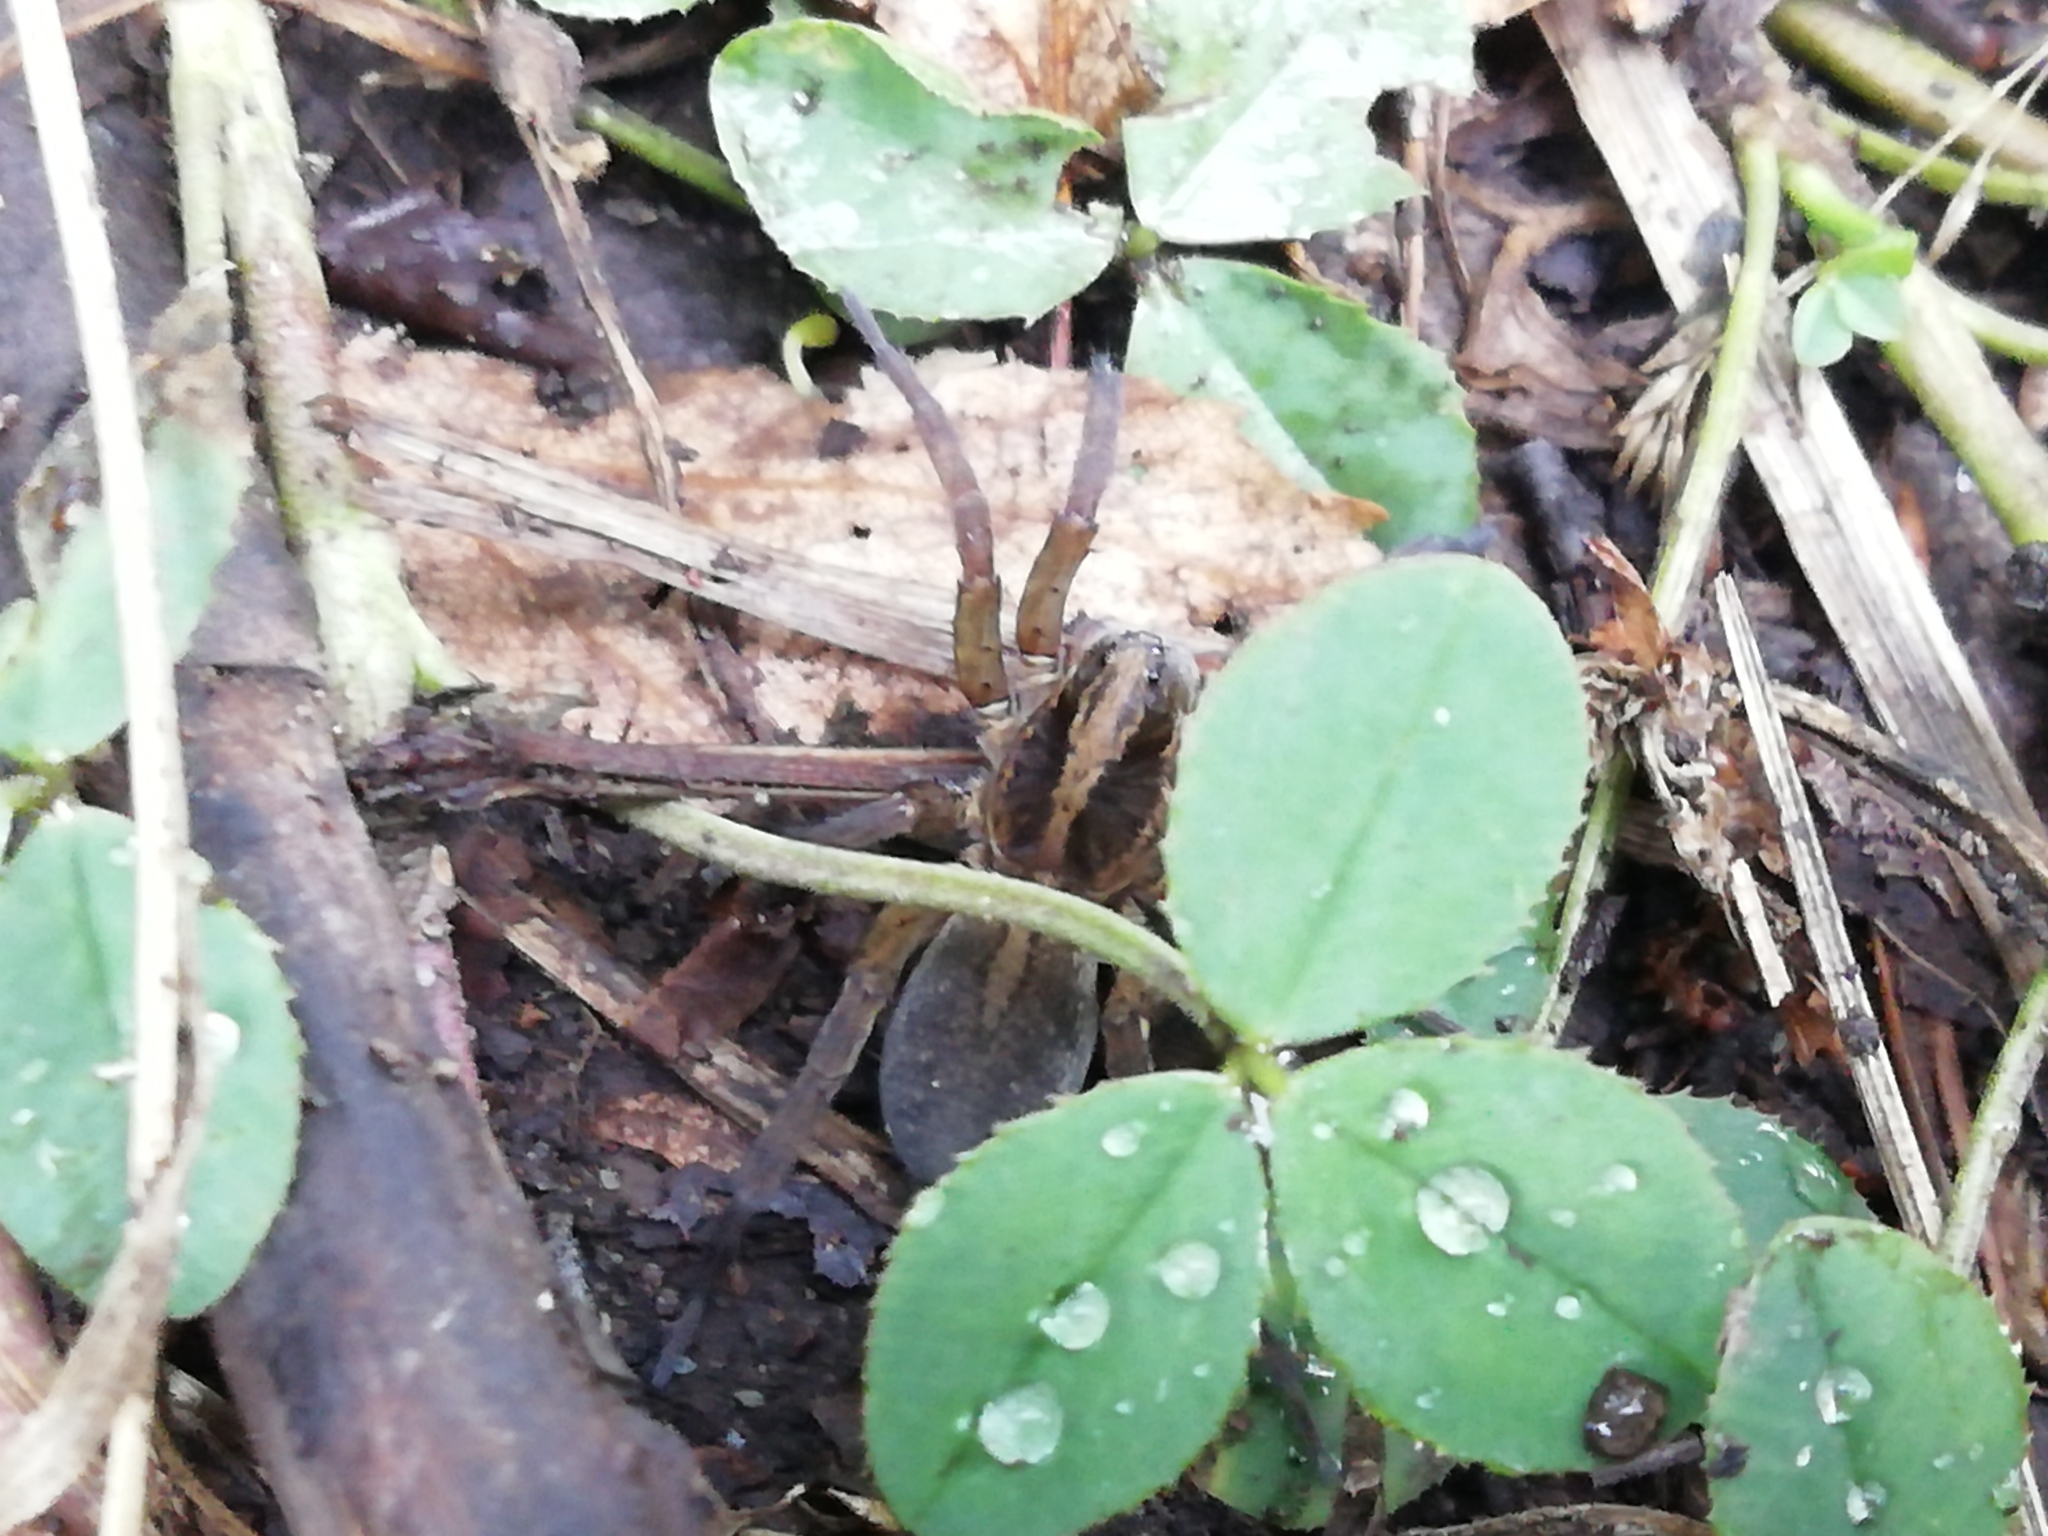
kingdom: Animalia
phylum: Arthropoda
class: Arachnida
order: Araneae
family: Lycosidae
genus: Trochosa
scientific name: Trochosa ruricola
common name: Spider
